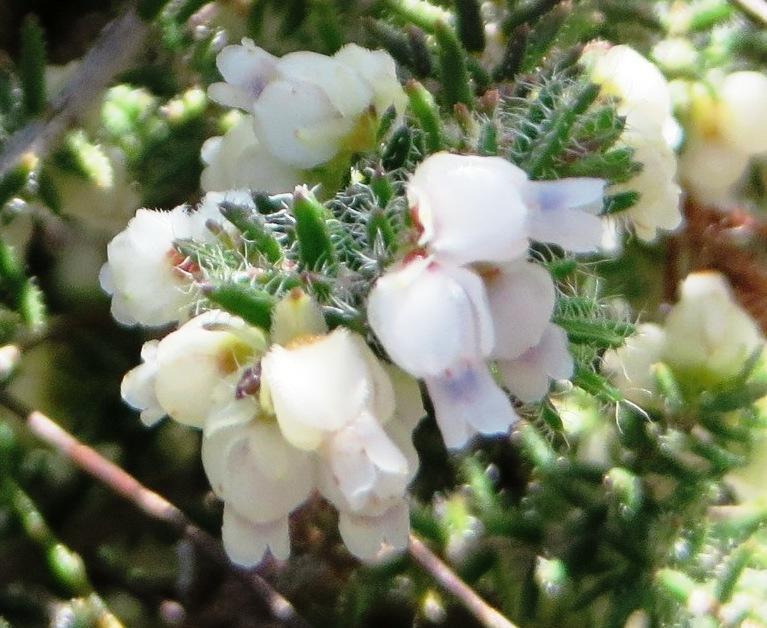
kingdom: Plantae
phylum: Tracheophyta
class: Magnoliopsida
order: Ericales
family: Ericaceae
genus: Erica
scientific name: Erica totta
